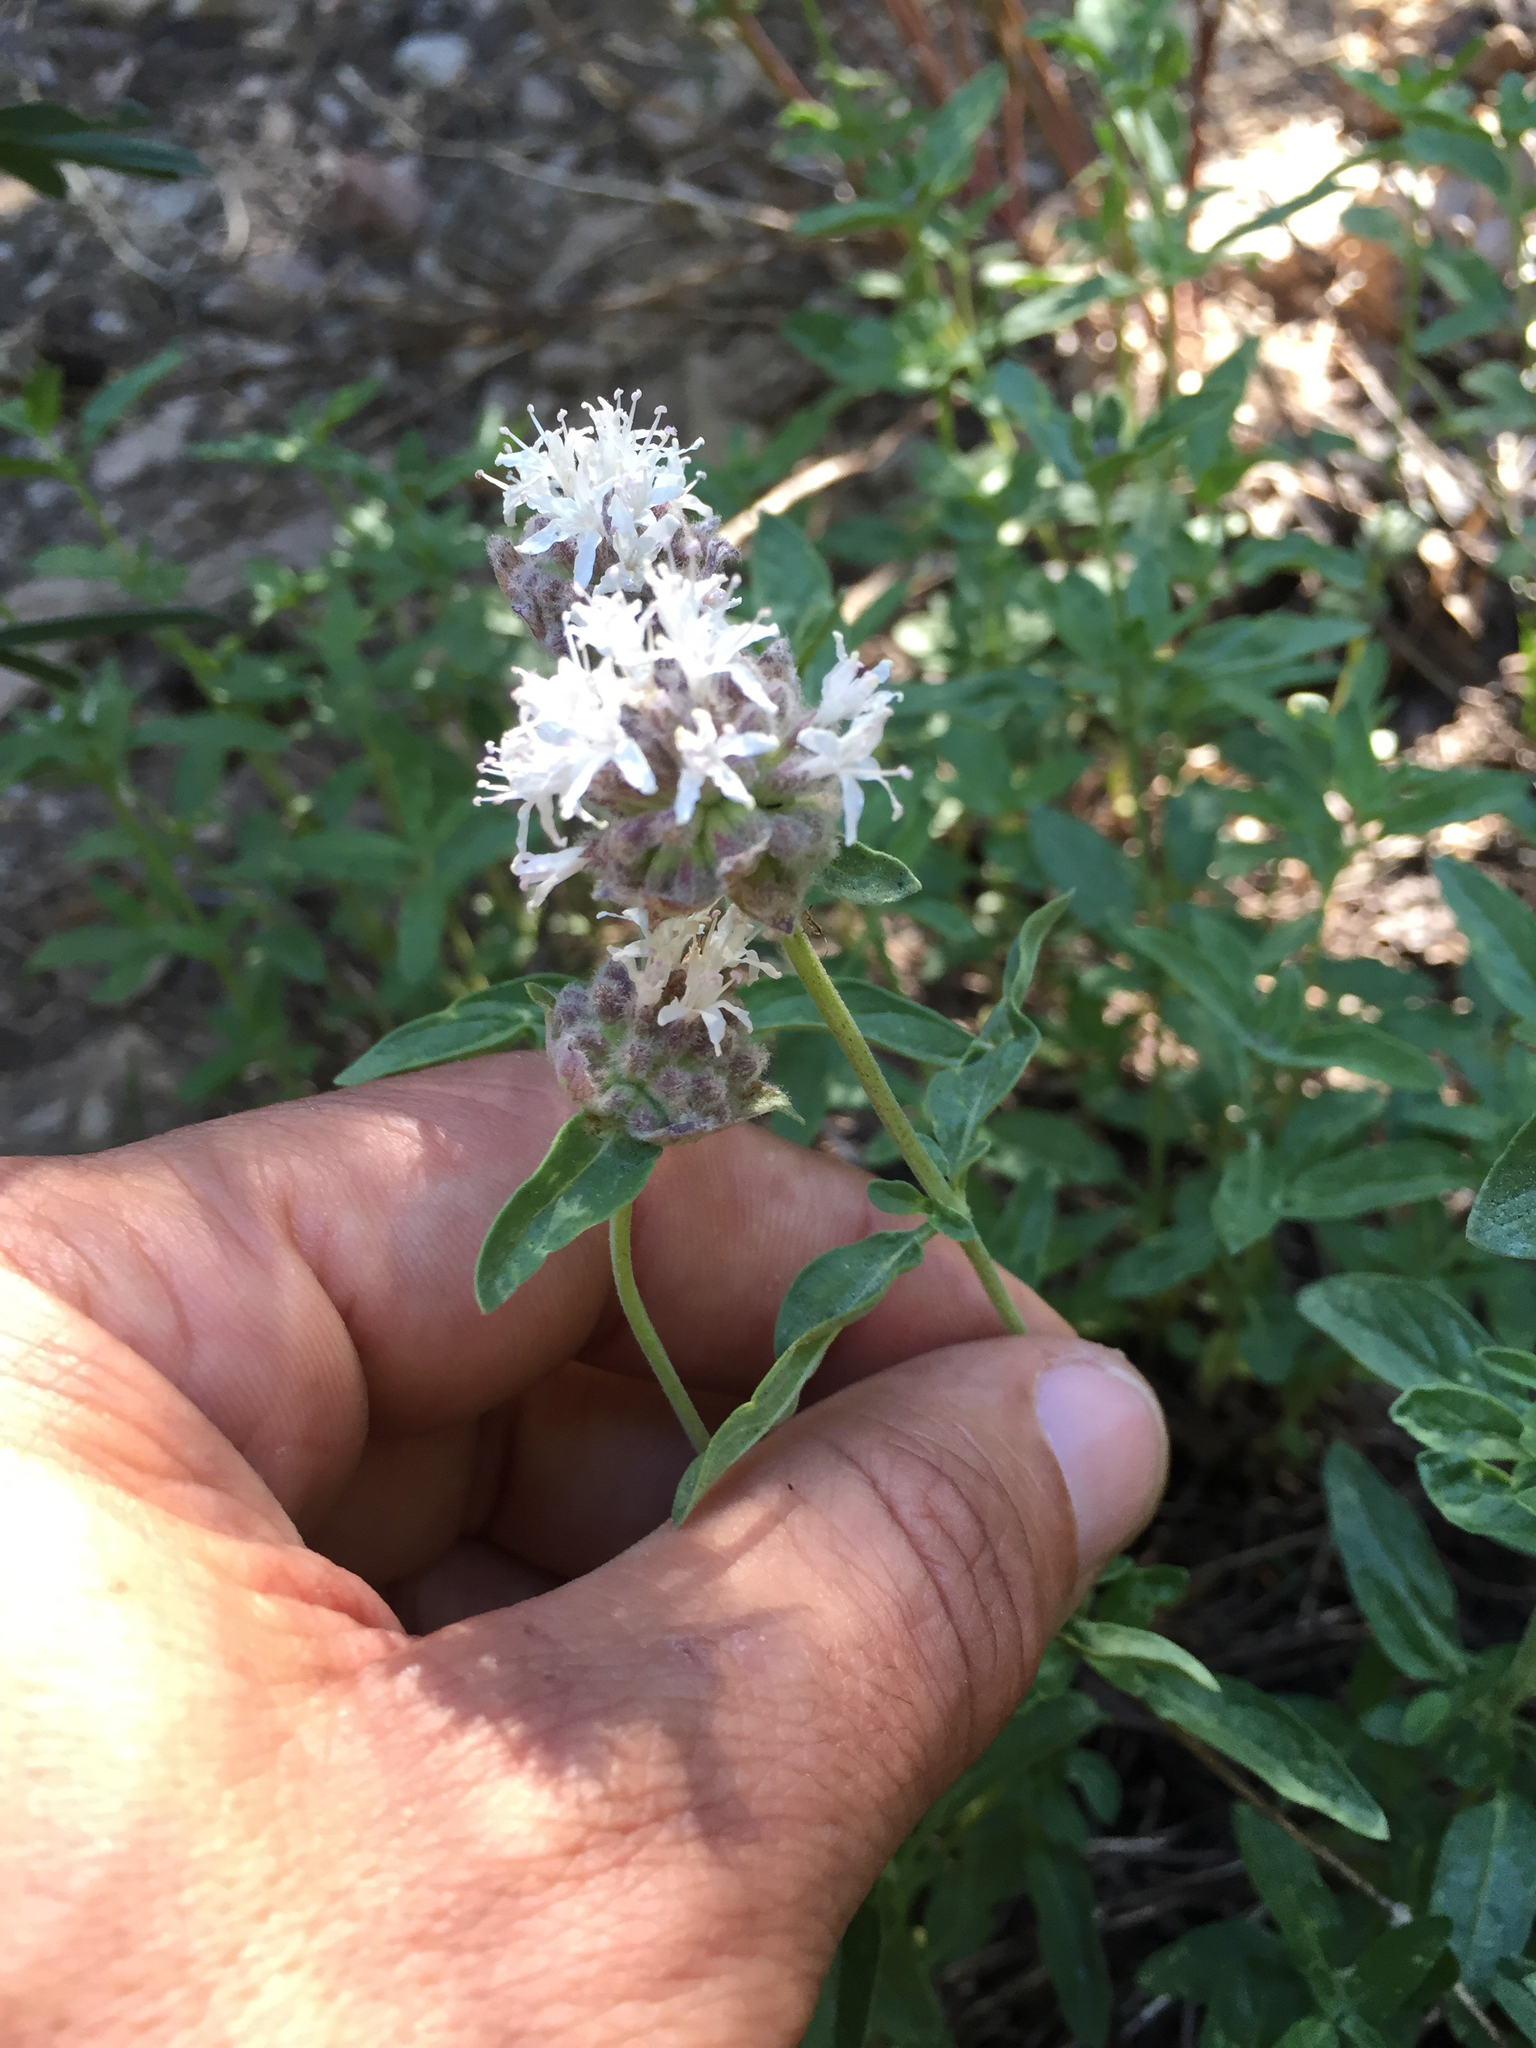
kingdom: Plantae
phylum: Tracheophyta
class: Magnoliopsida
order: Lamiales
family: Lamiaceae
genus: Monardella
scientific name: Monardella odoratissima
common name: Pacific monardella
